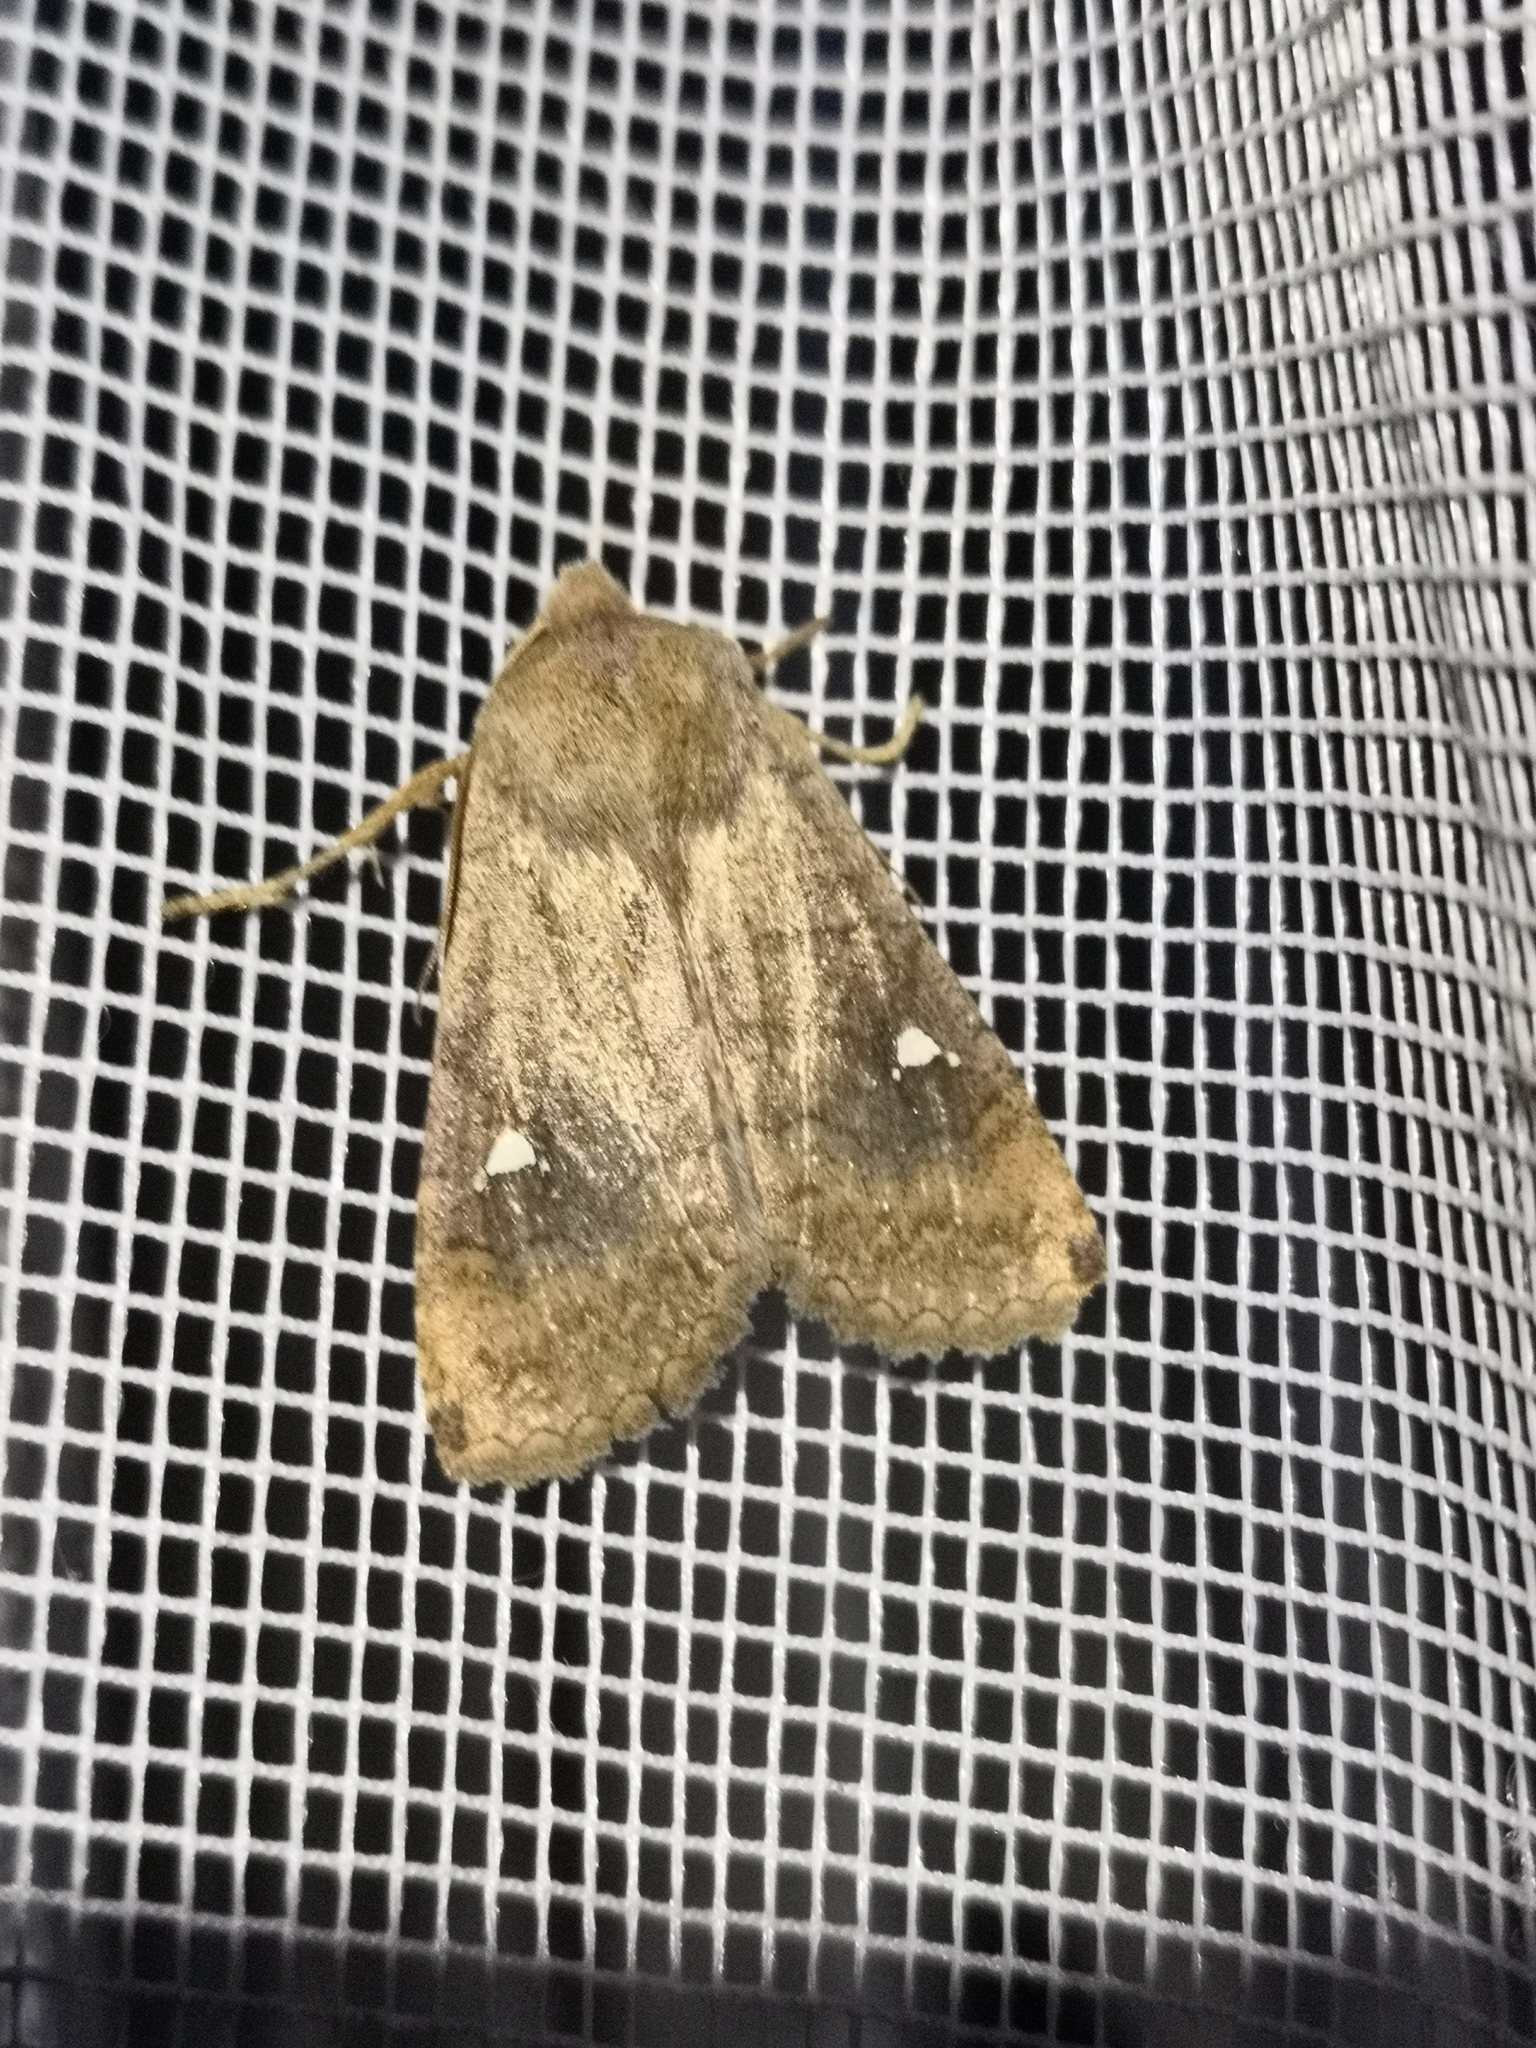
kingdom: Animalia
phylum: Arthropoda
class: Insecta
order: Lepidoptera
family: Noctuidae
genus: Eupsilia
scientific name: Eupsilia transversa
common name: Satellite
